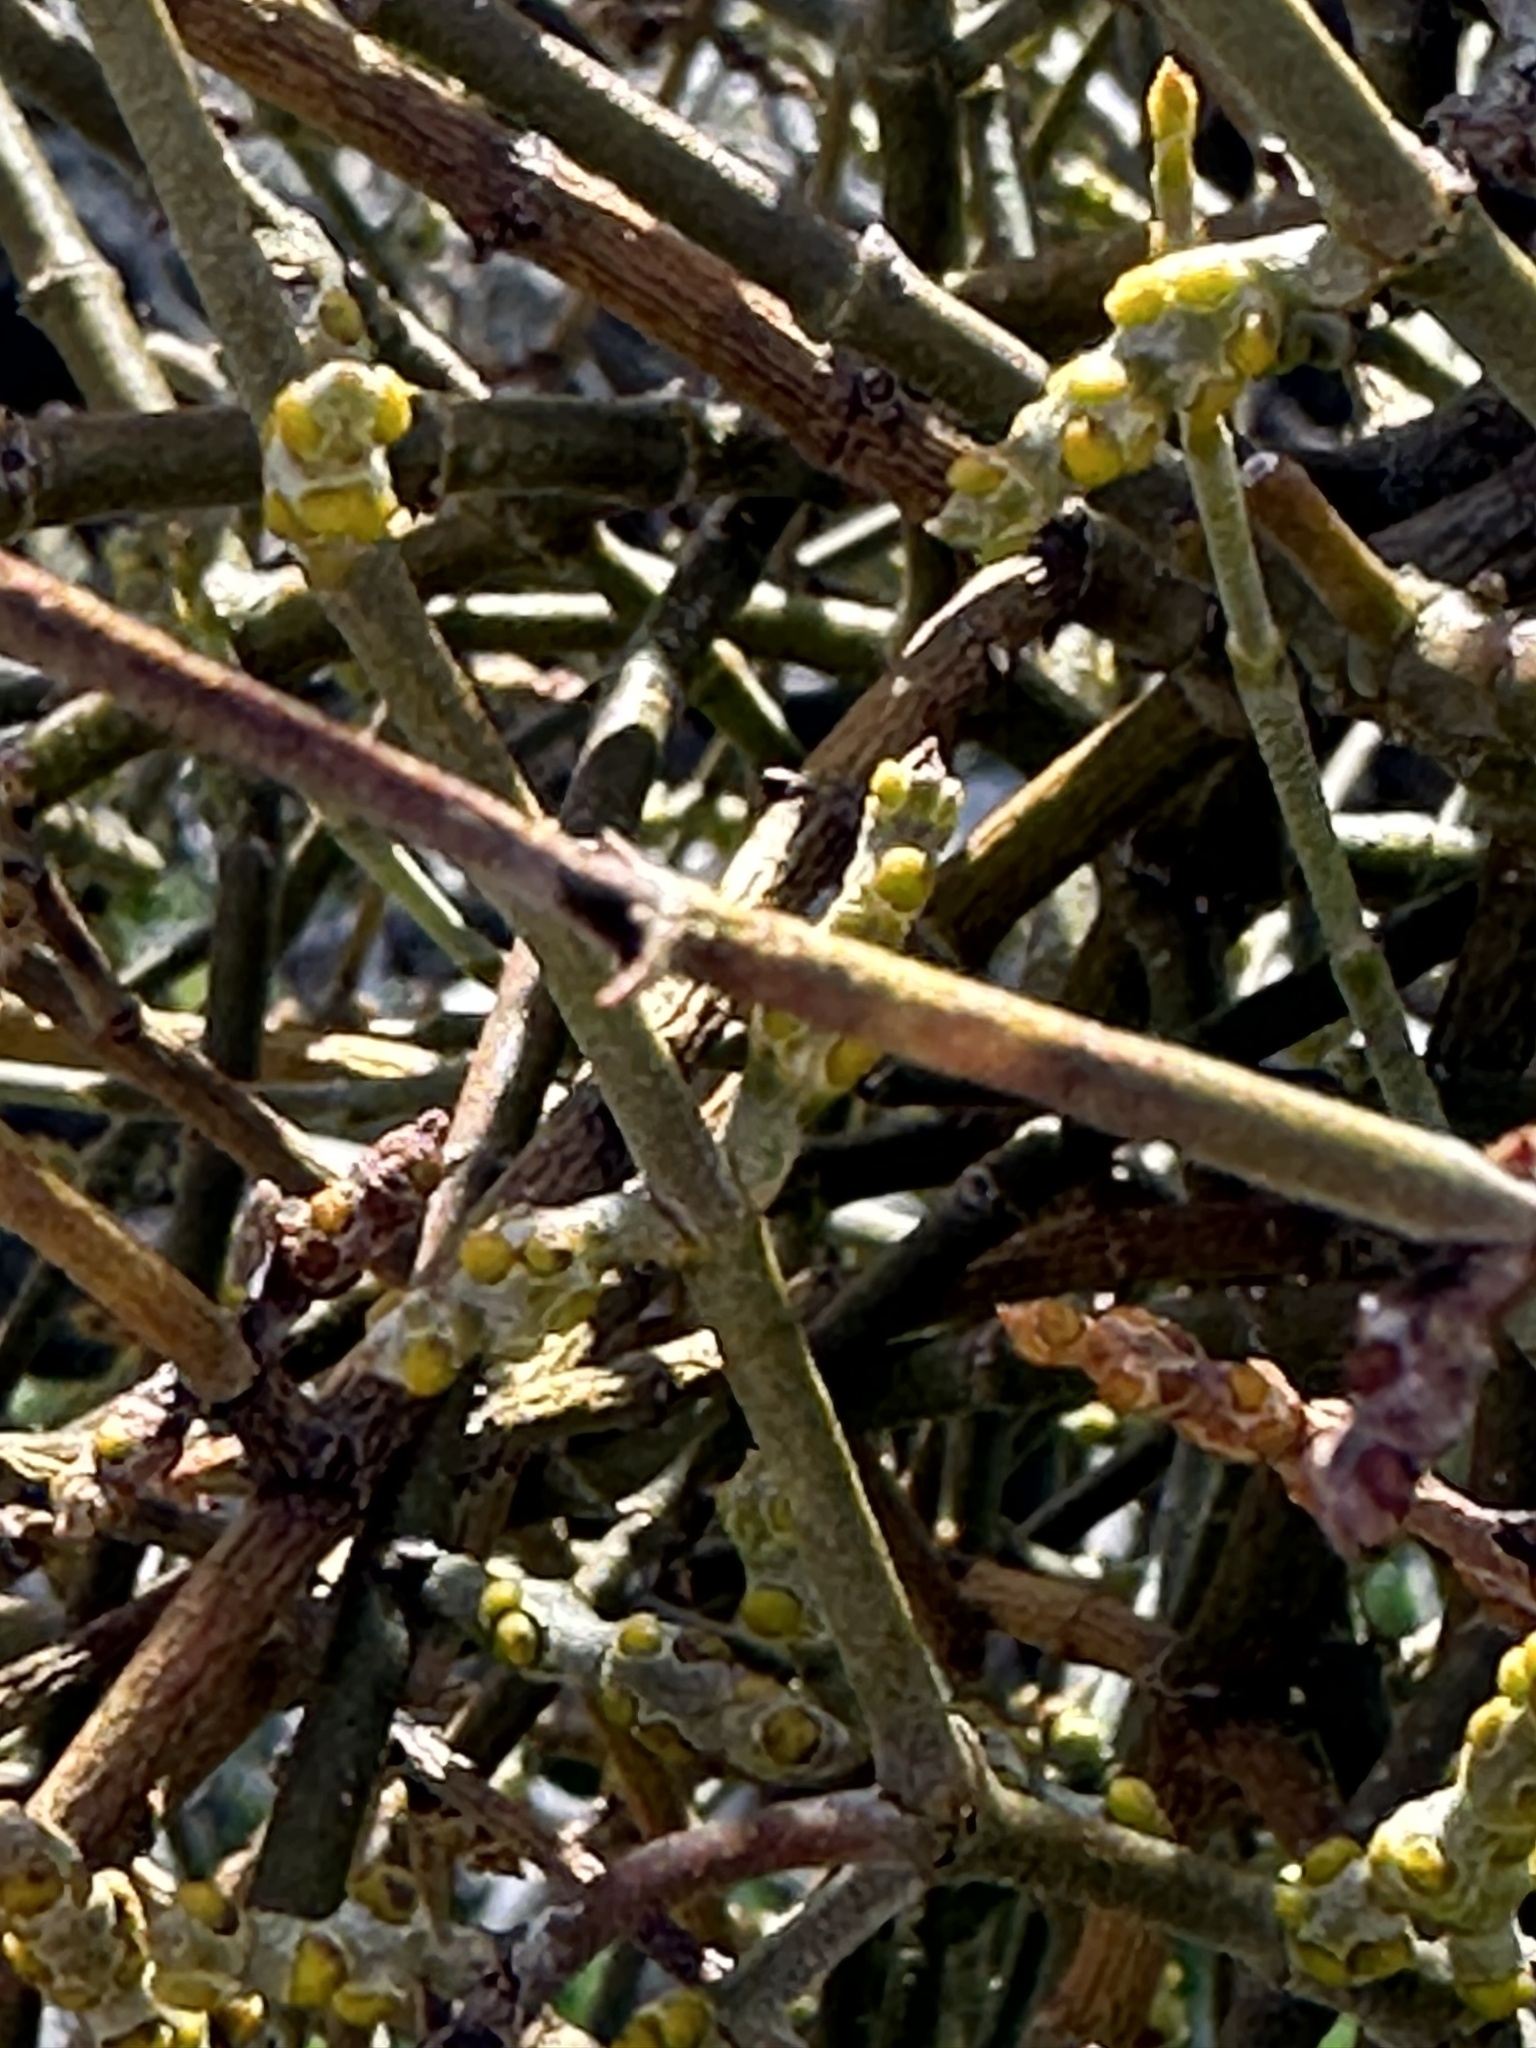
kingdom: Plantae
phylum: Tracheophyta
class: Magnoliopsida
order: Santalales
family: Viscaceae
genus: Phoradendron
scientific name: Phoradendron californicum
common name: Acacia mistletoe
